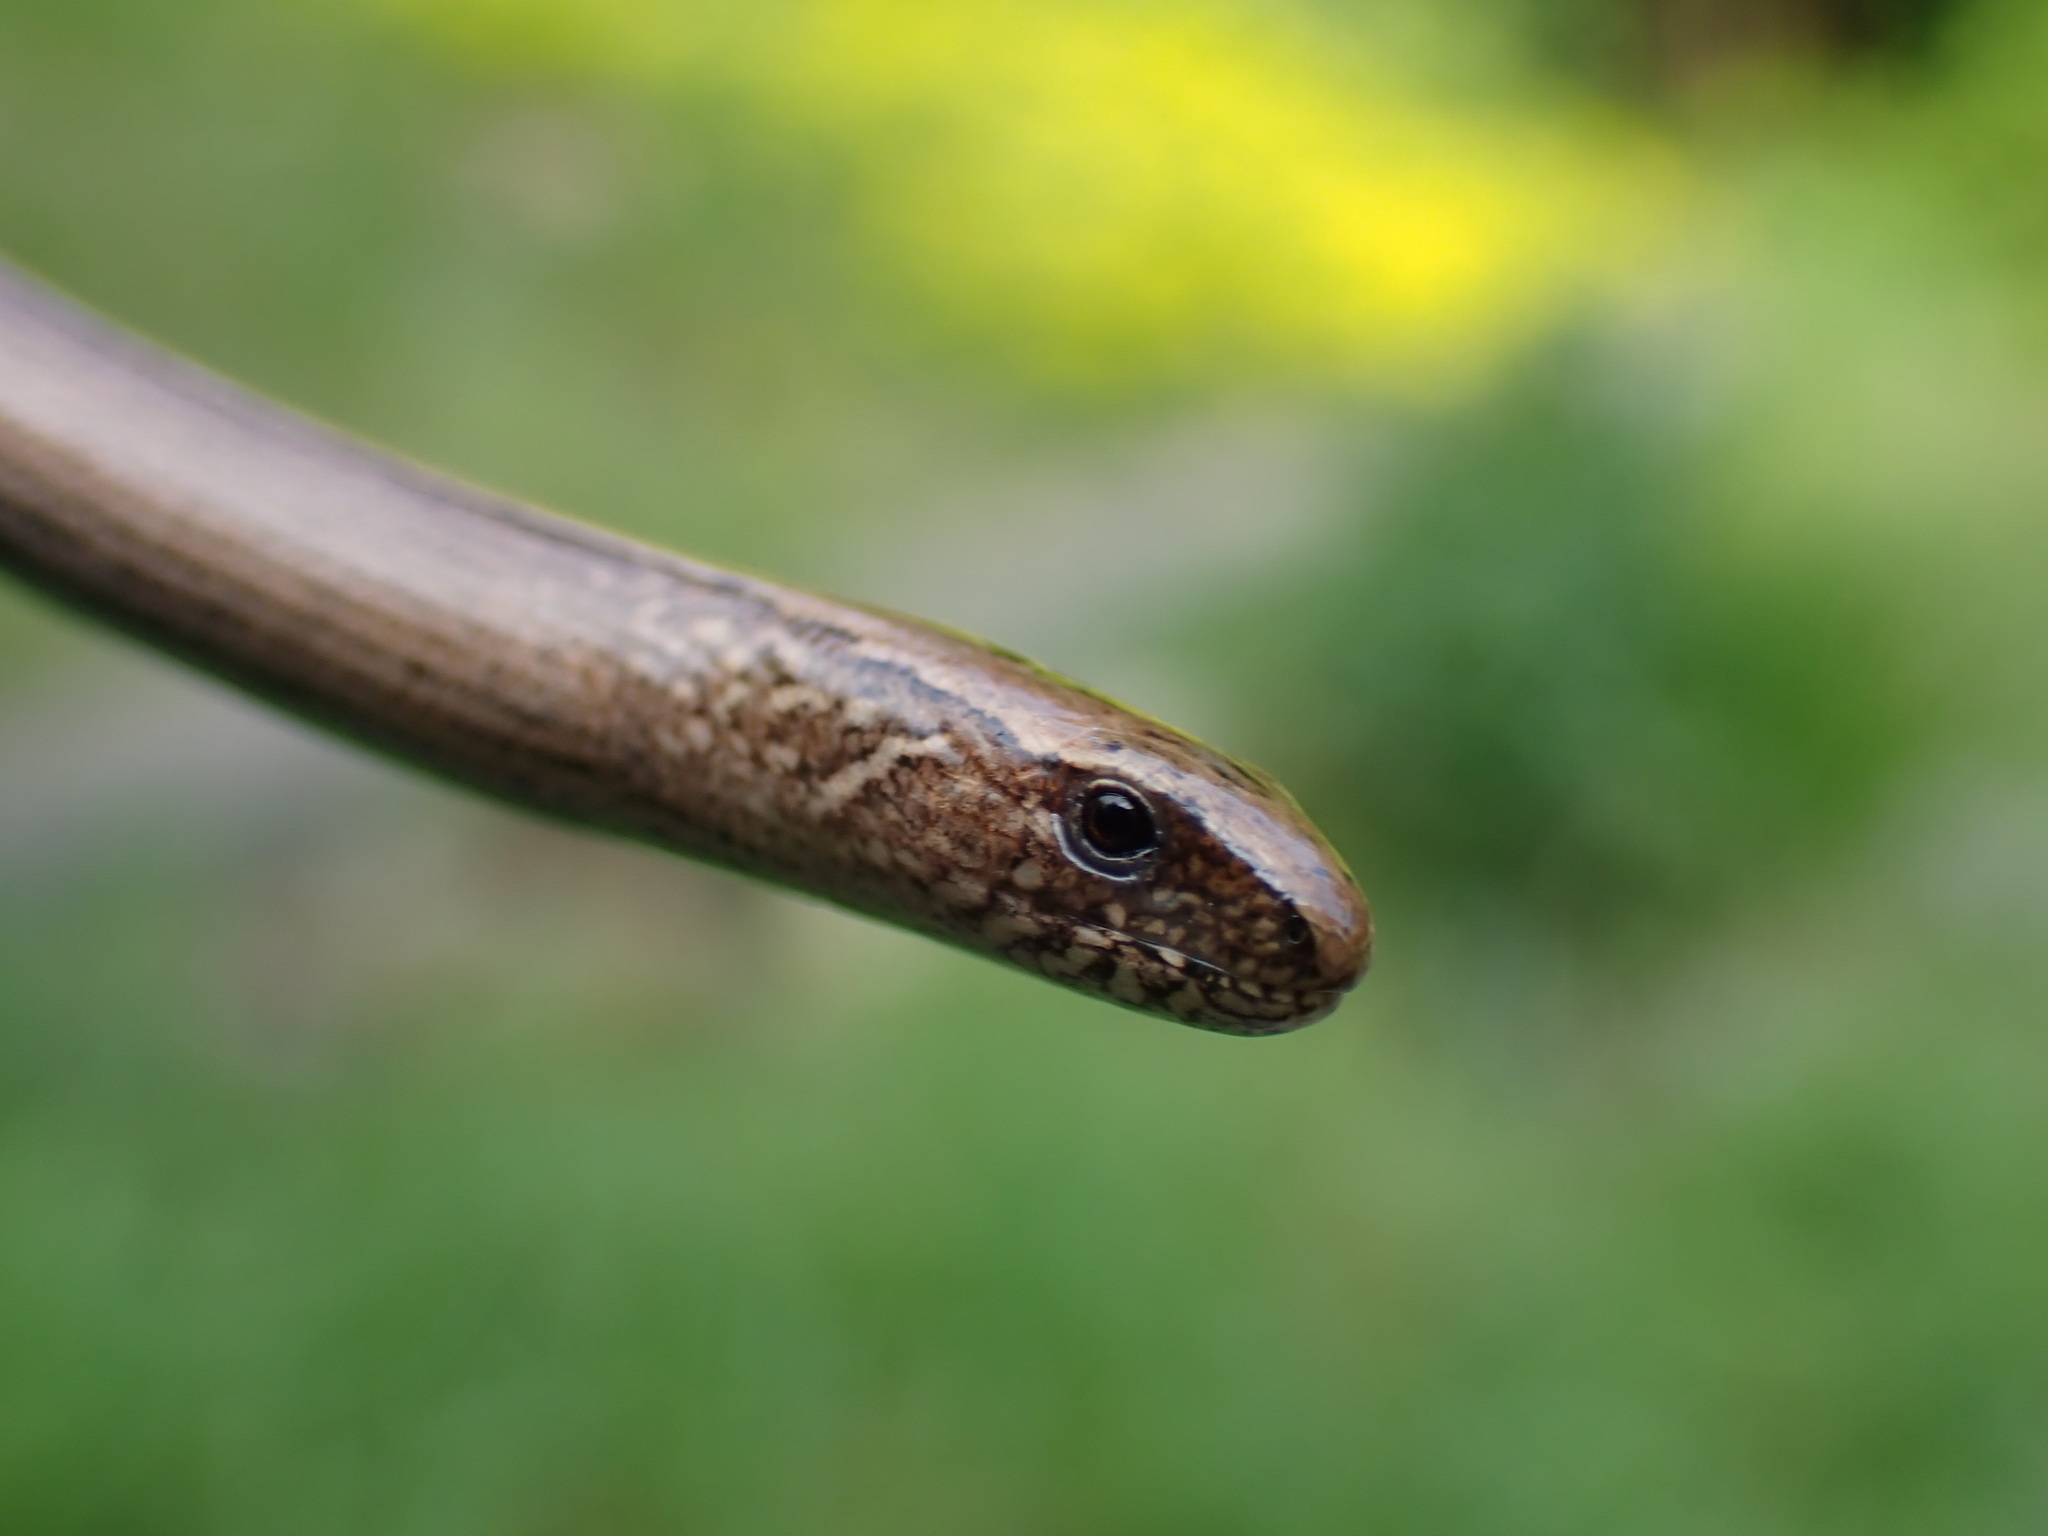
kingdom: Animalia
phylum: Chordata
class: Squamata
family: Anguidae
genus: Anguis
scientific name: Anguis fragilis
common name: Slow worm
